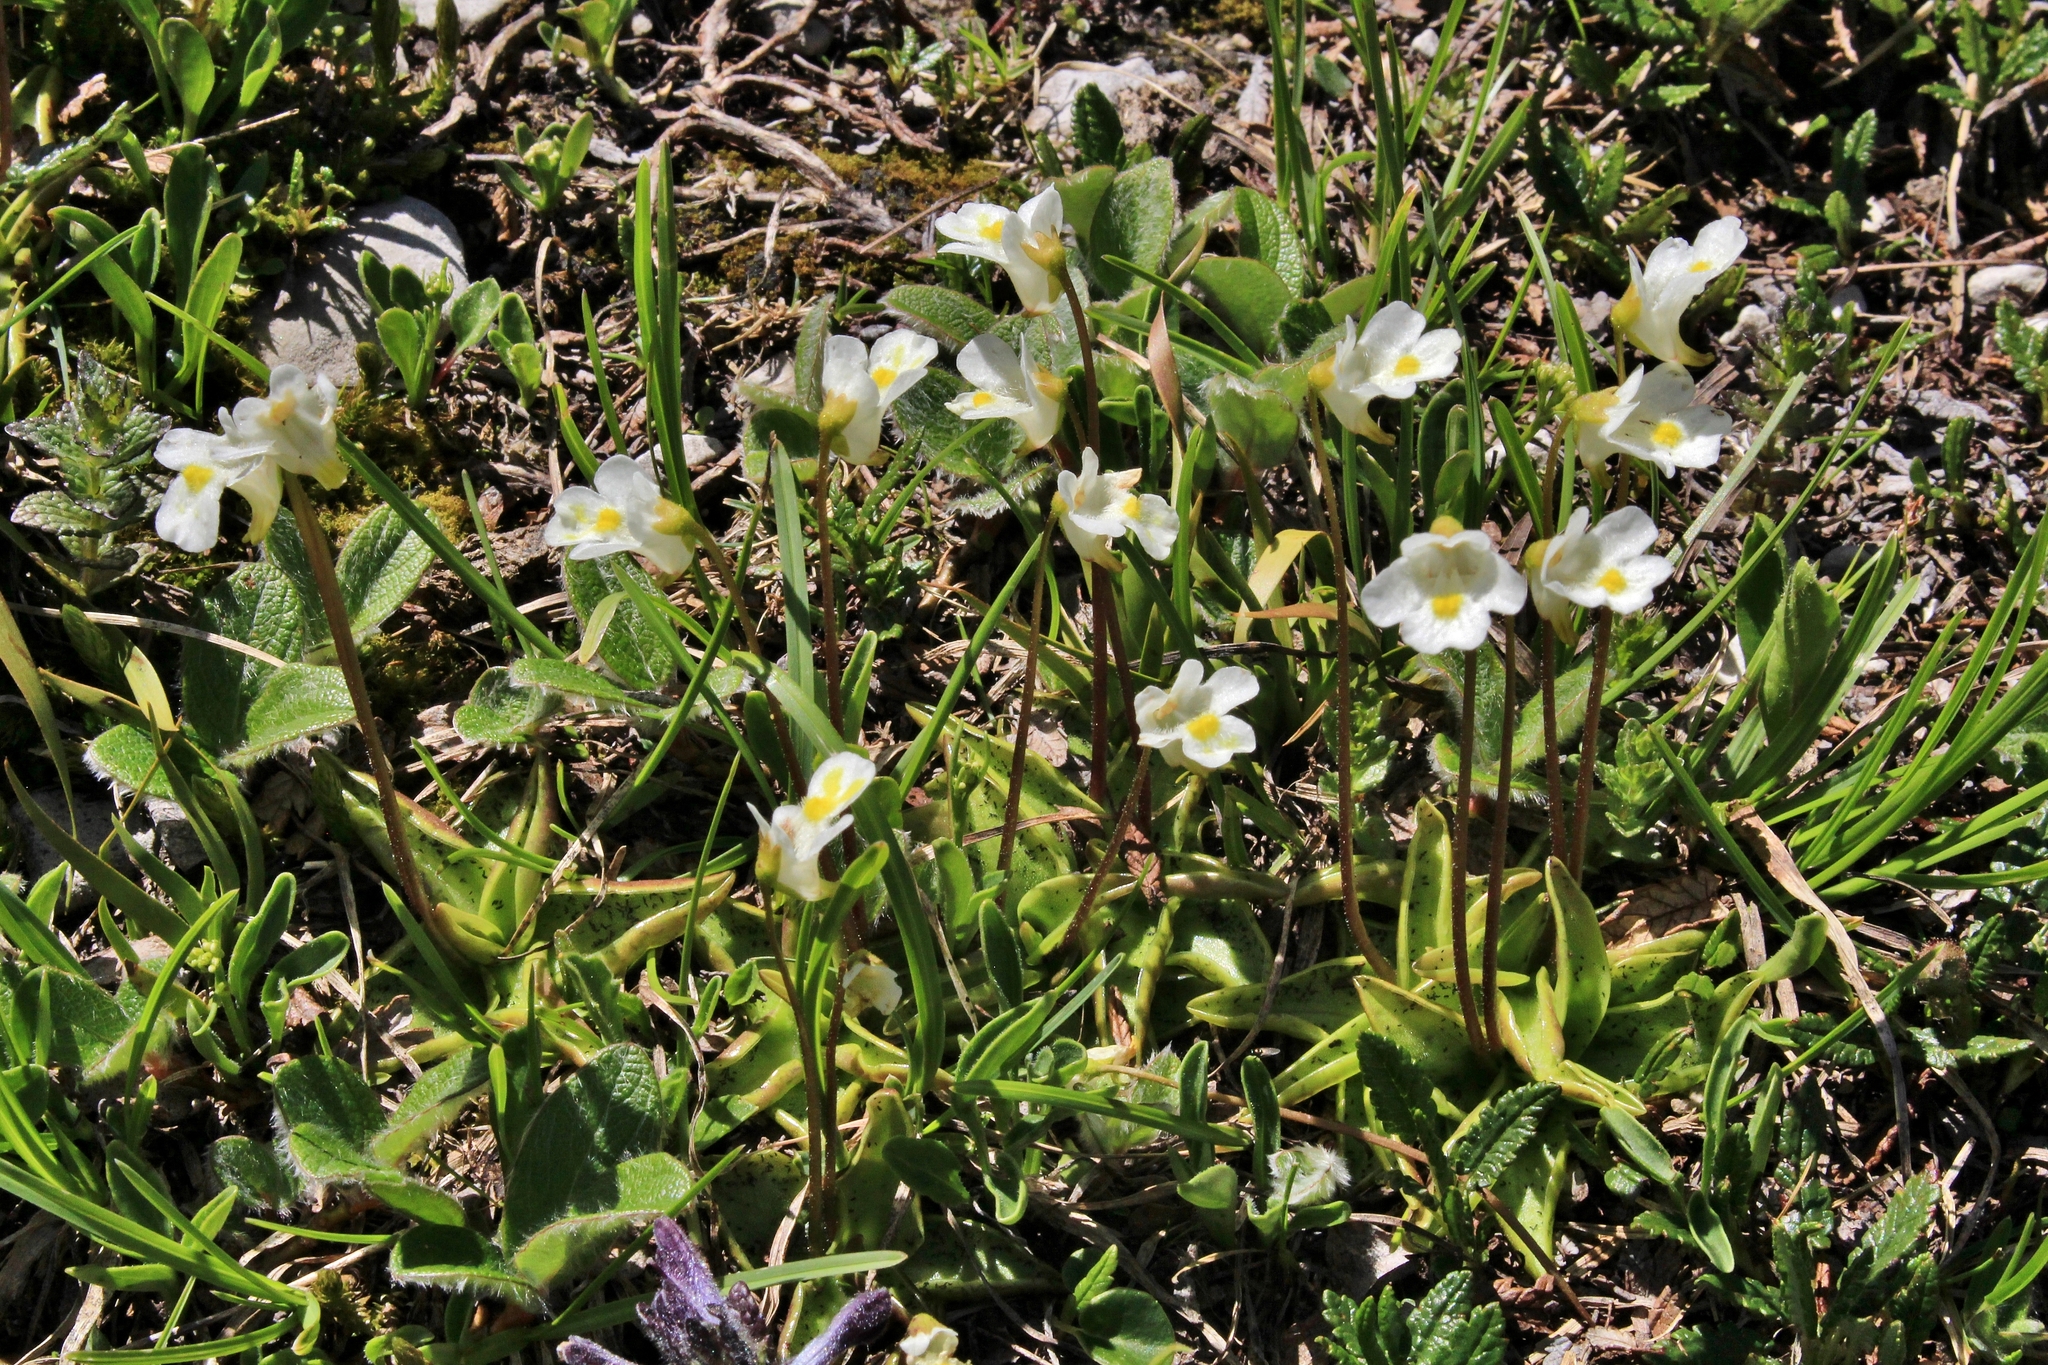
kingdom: Plantae
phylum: Tracheophyta
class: Magnoliopsida
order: Lamiales
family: Lentibulariaceae
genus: Pinguicula
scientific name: Pinguicula alpina
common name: Alpine butterwort
